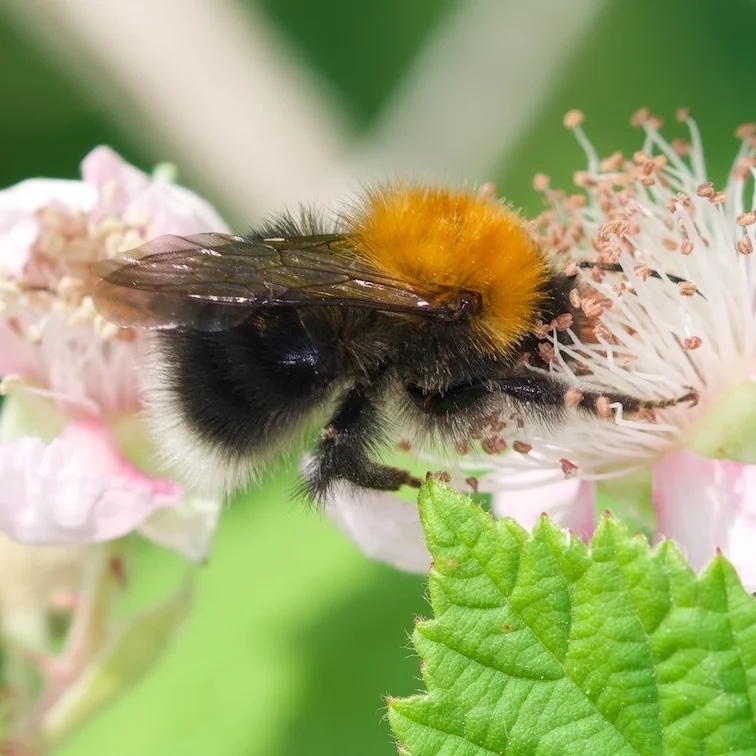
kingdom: Animalia
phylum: Arthropoda
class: Insecta
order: Hymenoptera
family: Apidae
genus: Bombus
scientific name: Bombus hypnorum
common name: New garden bumblebee
